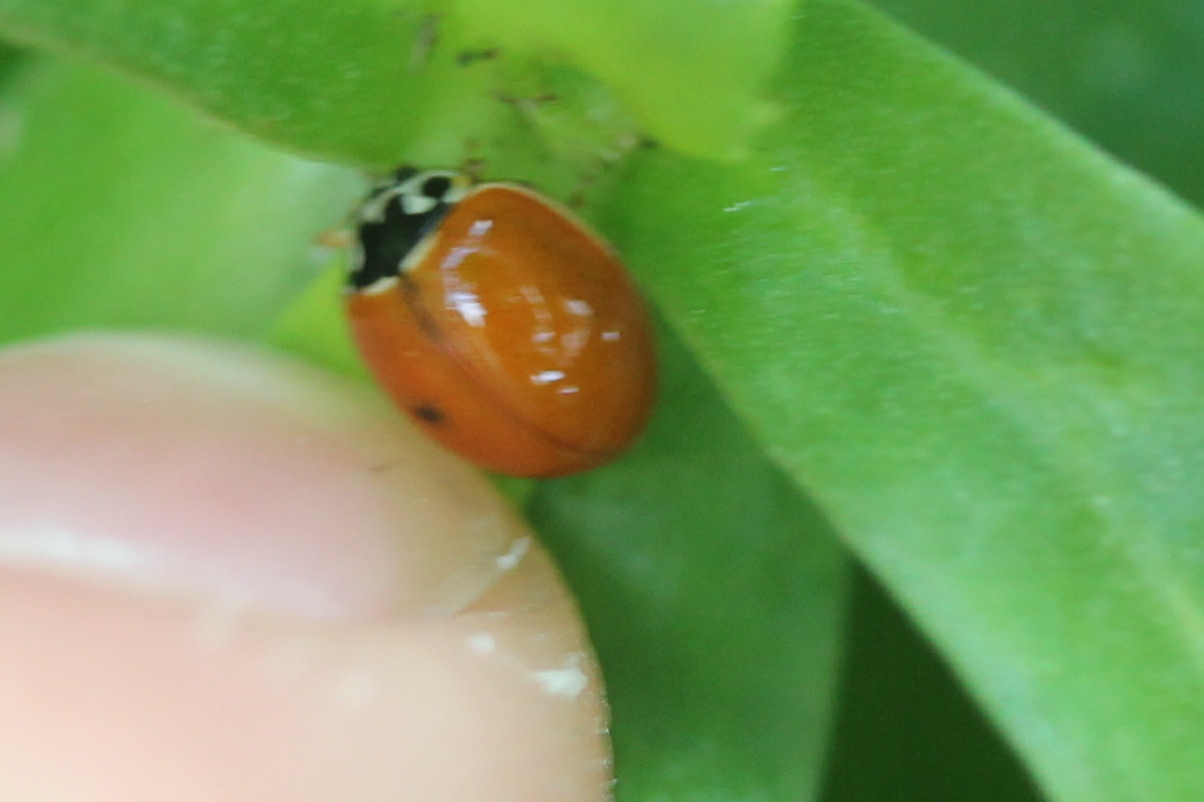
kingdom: Animalia
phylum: Arthropoda
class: Insecta
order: Coleoptera
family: Coccinellidae
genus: Cycloneda
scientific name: Cycloneda munda
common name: Polished lady beetle
